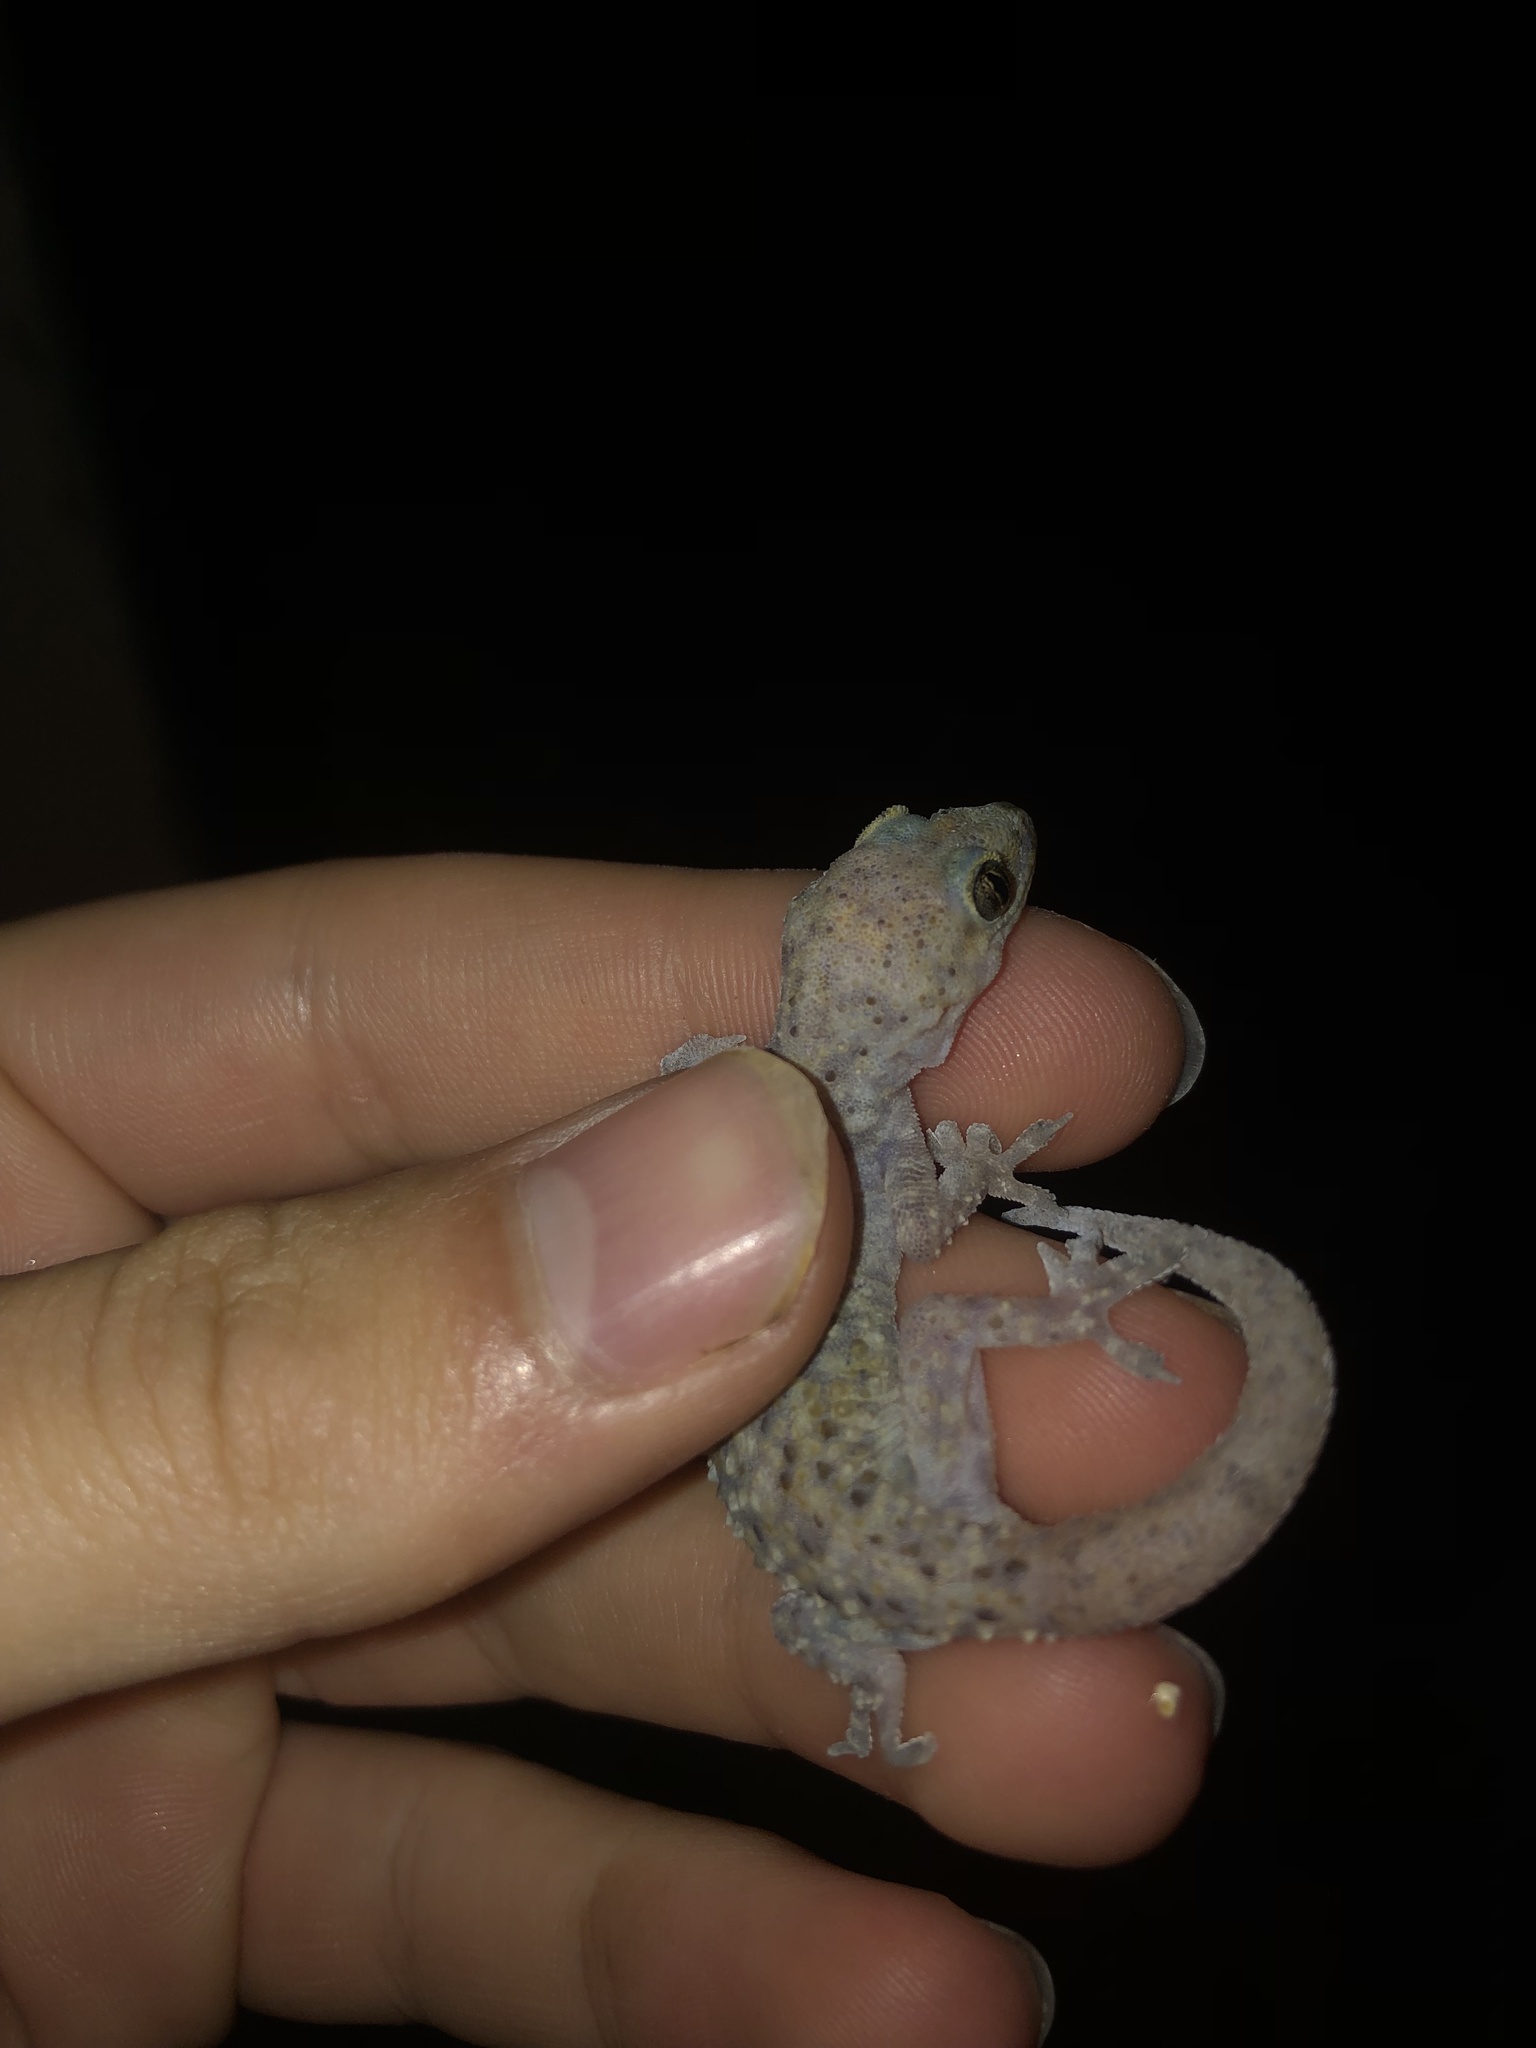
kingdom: Animalia
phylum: Chordata
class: Squamata
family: Gekkonidae
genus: Hemidactylus
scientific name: Hemidactylus turcicus
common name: Turkish gecko
